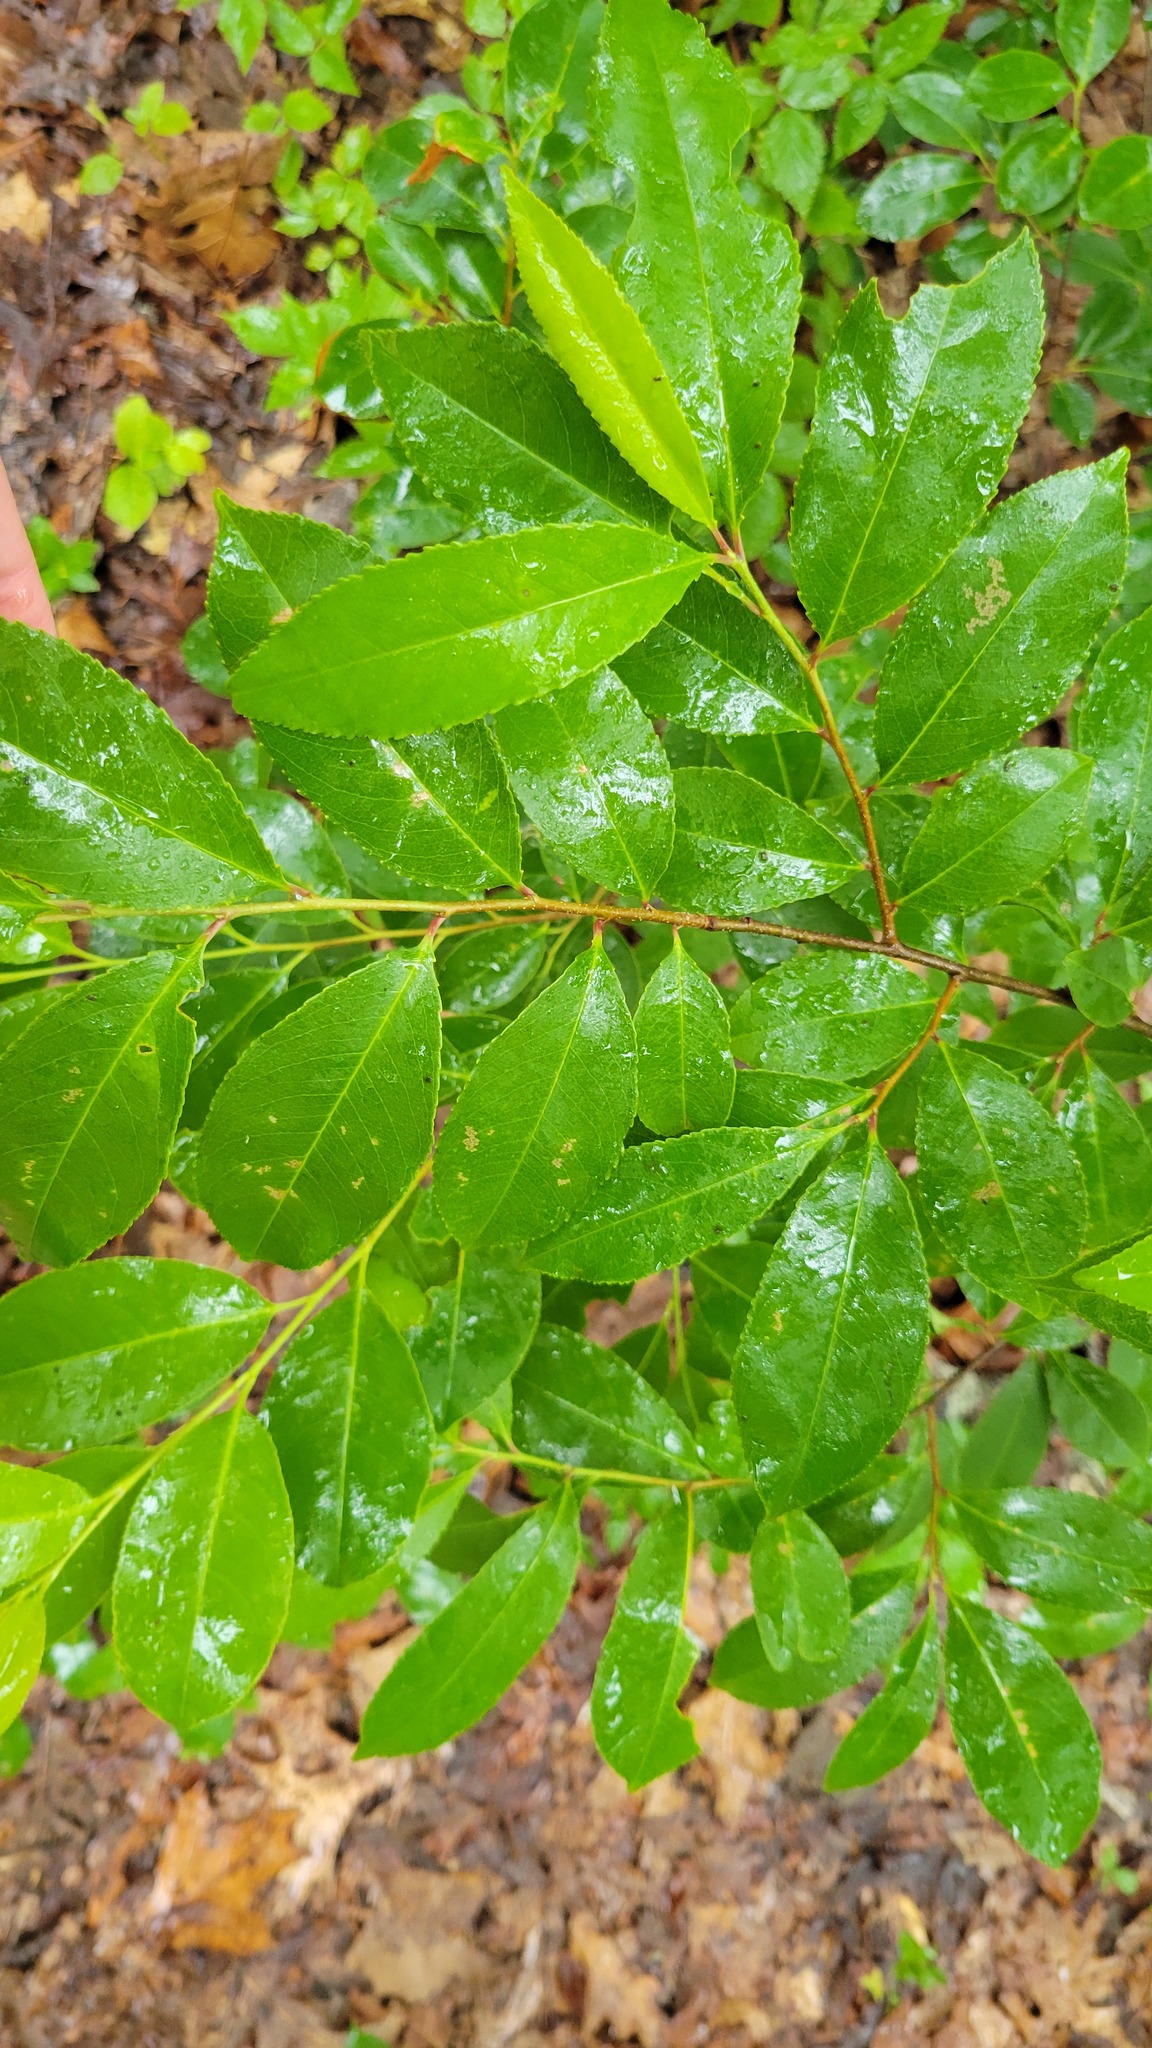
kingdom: Plantae
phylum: Tracheophyta
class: Magnoliopsida
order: Rosales
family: Rosaceae
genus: Prunus
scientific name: Prunus serotina
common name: Black cherry
